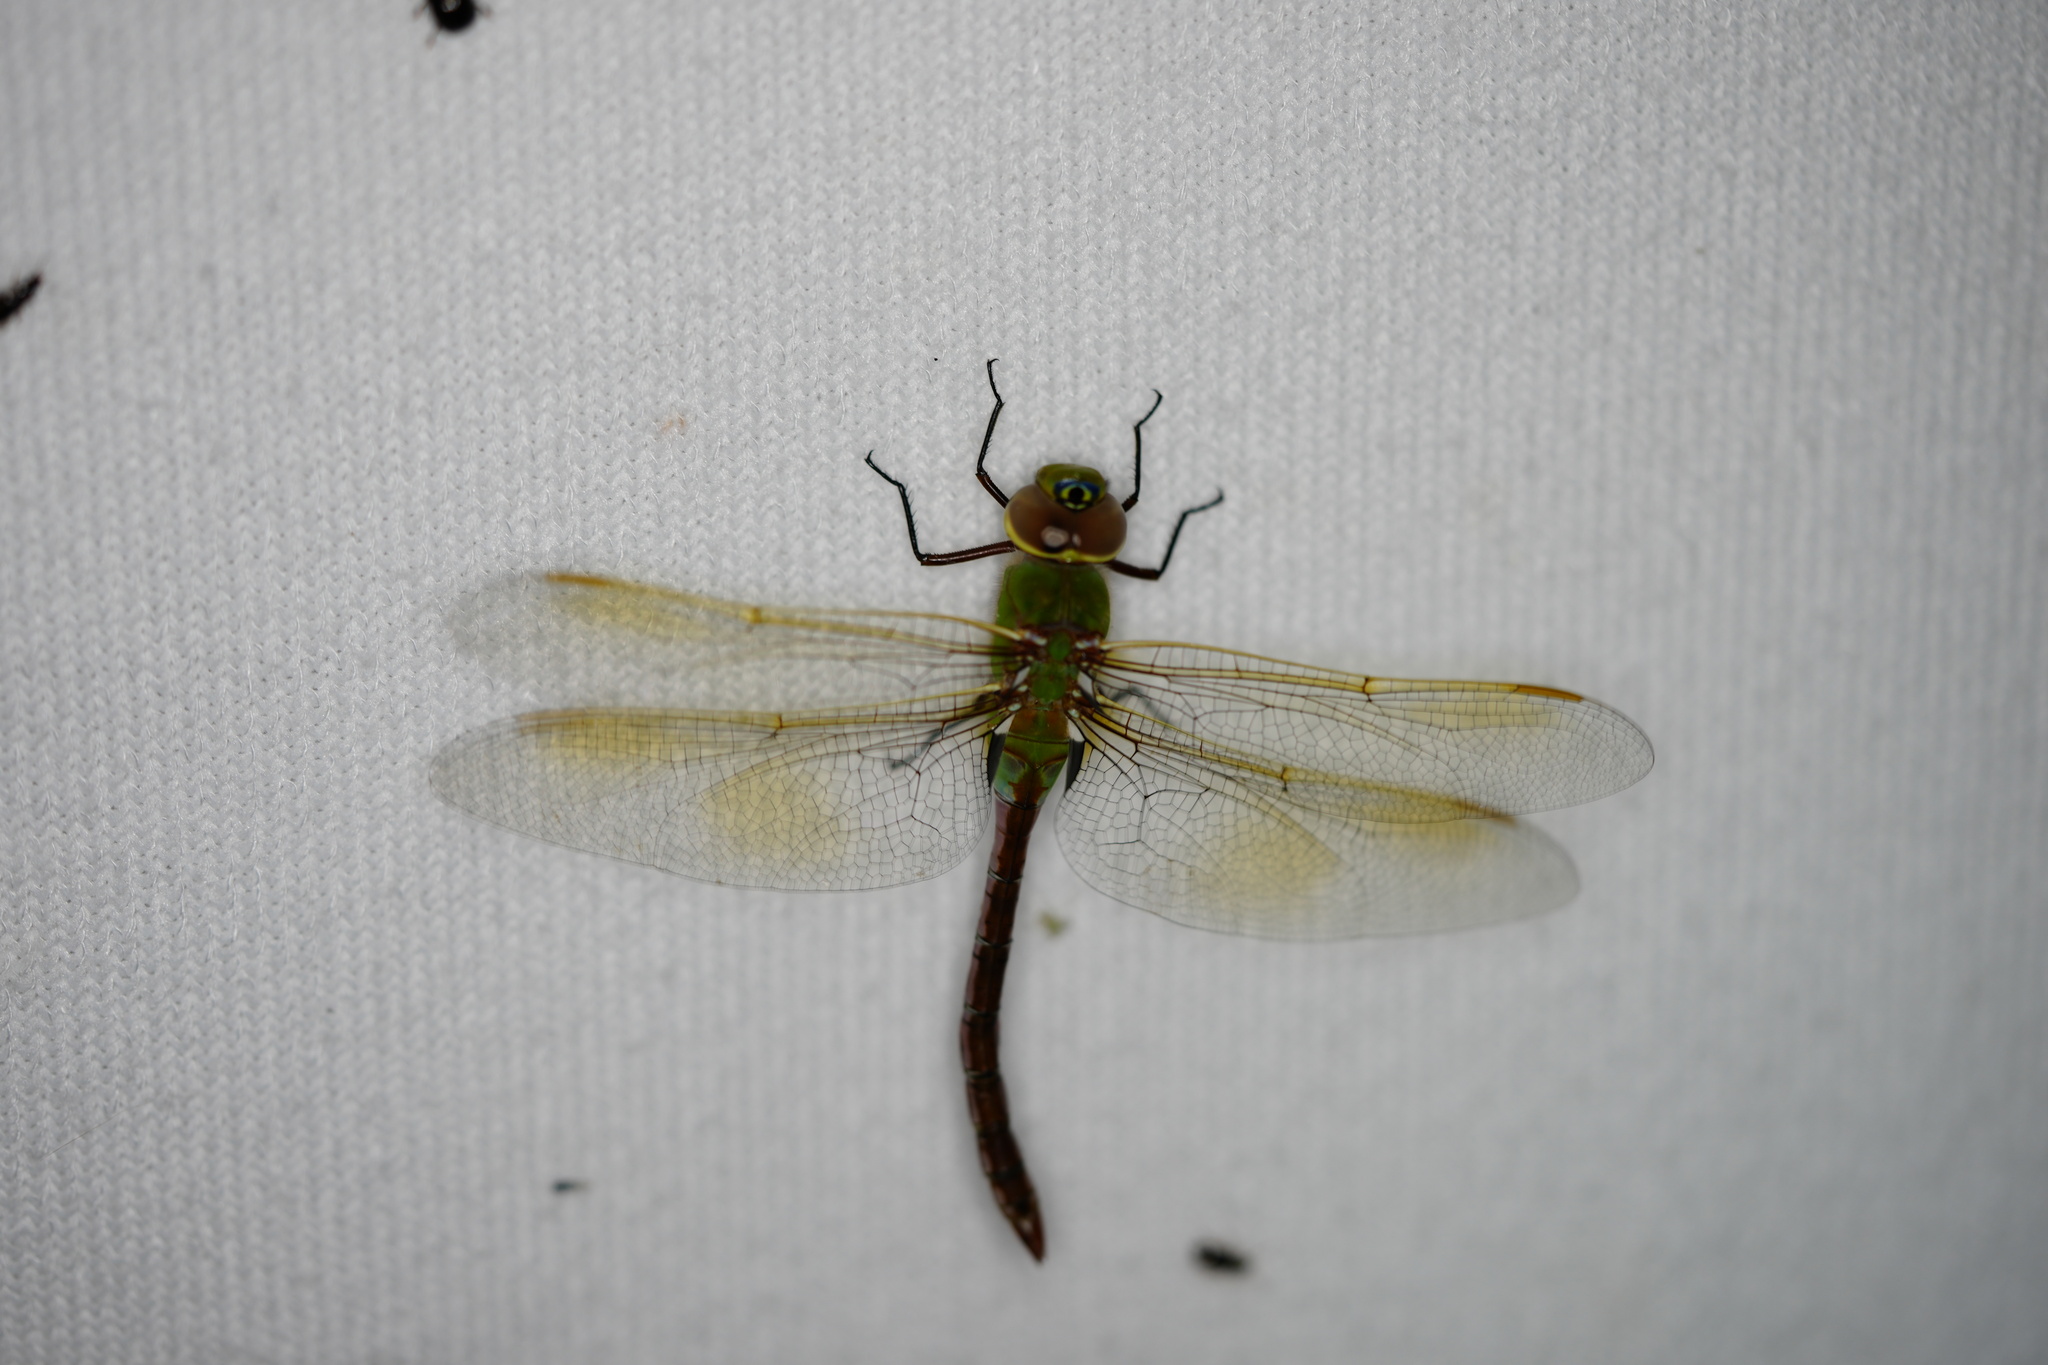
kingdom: Animalia
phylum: Arthropoda
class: Insecta
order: Odonata
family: Aeshnidae
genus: Anax
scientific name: Anax junius
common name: Common green darner
